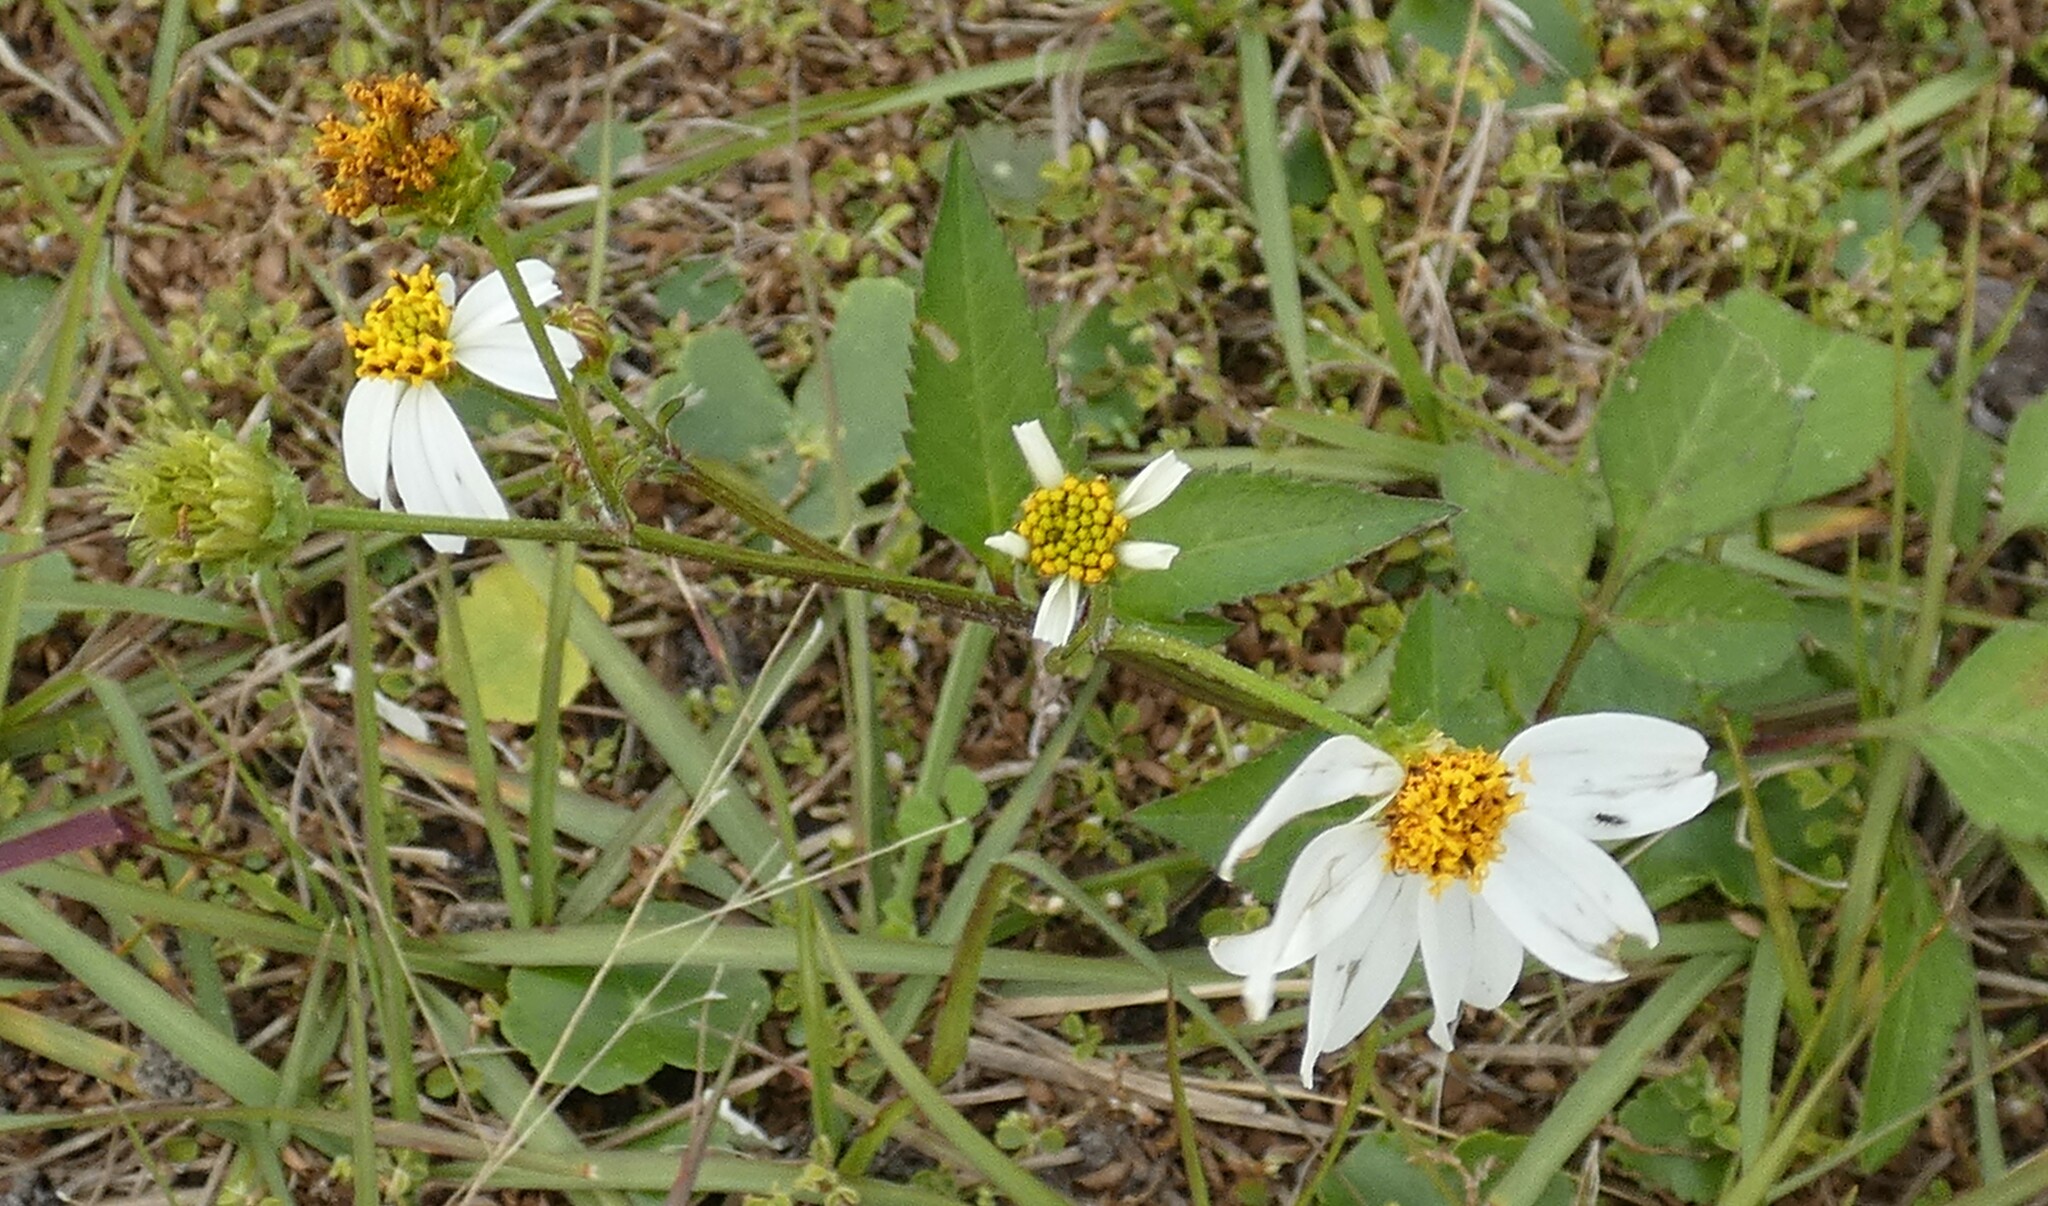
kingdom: Plantae
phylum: Tracheophyta
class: Magnoliopsida
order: Asterales
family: Asteraceae
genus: Bidens
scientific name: Bidens alba
